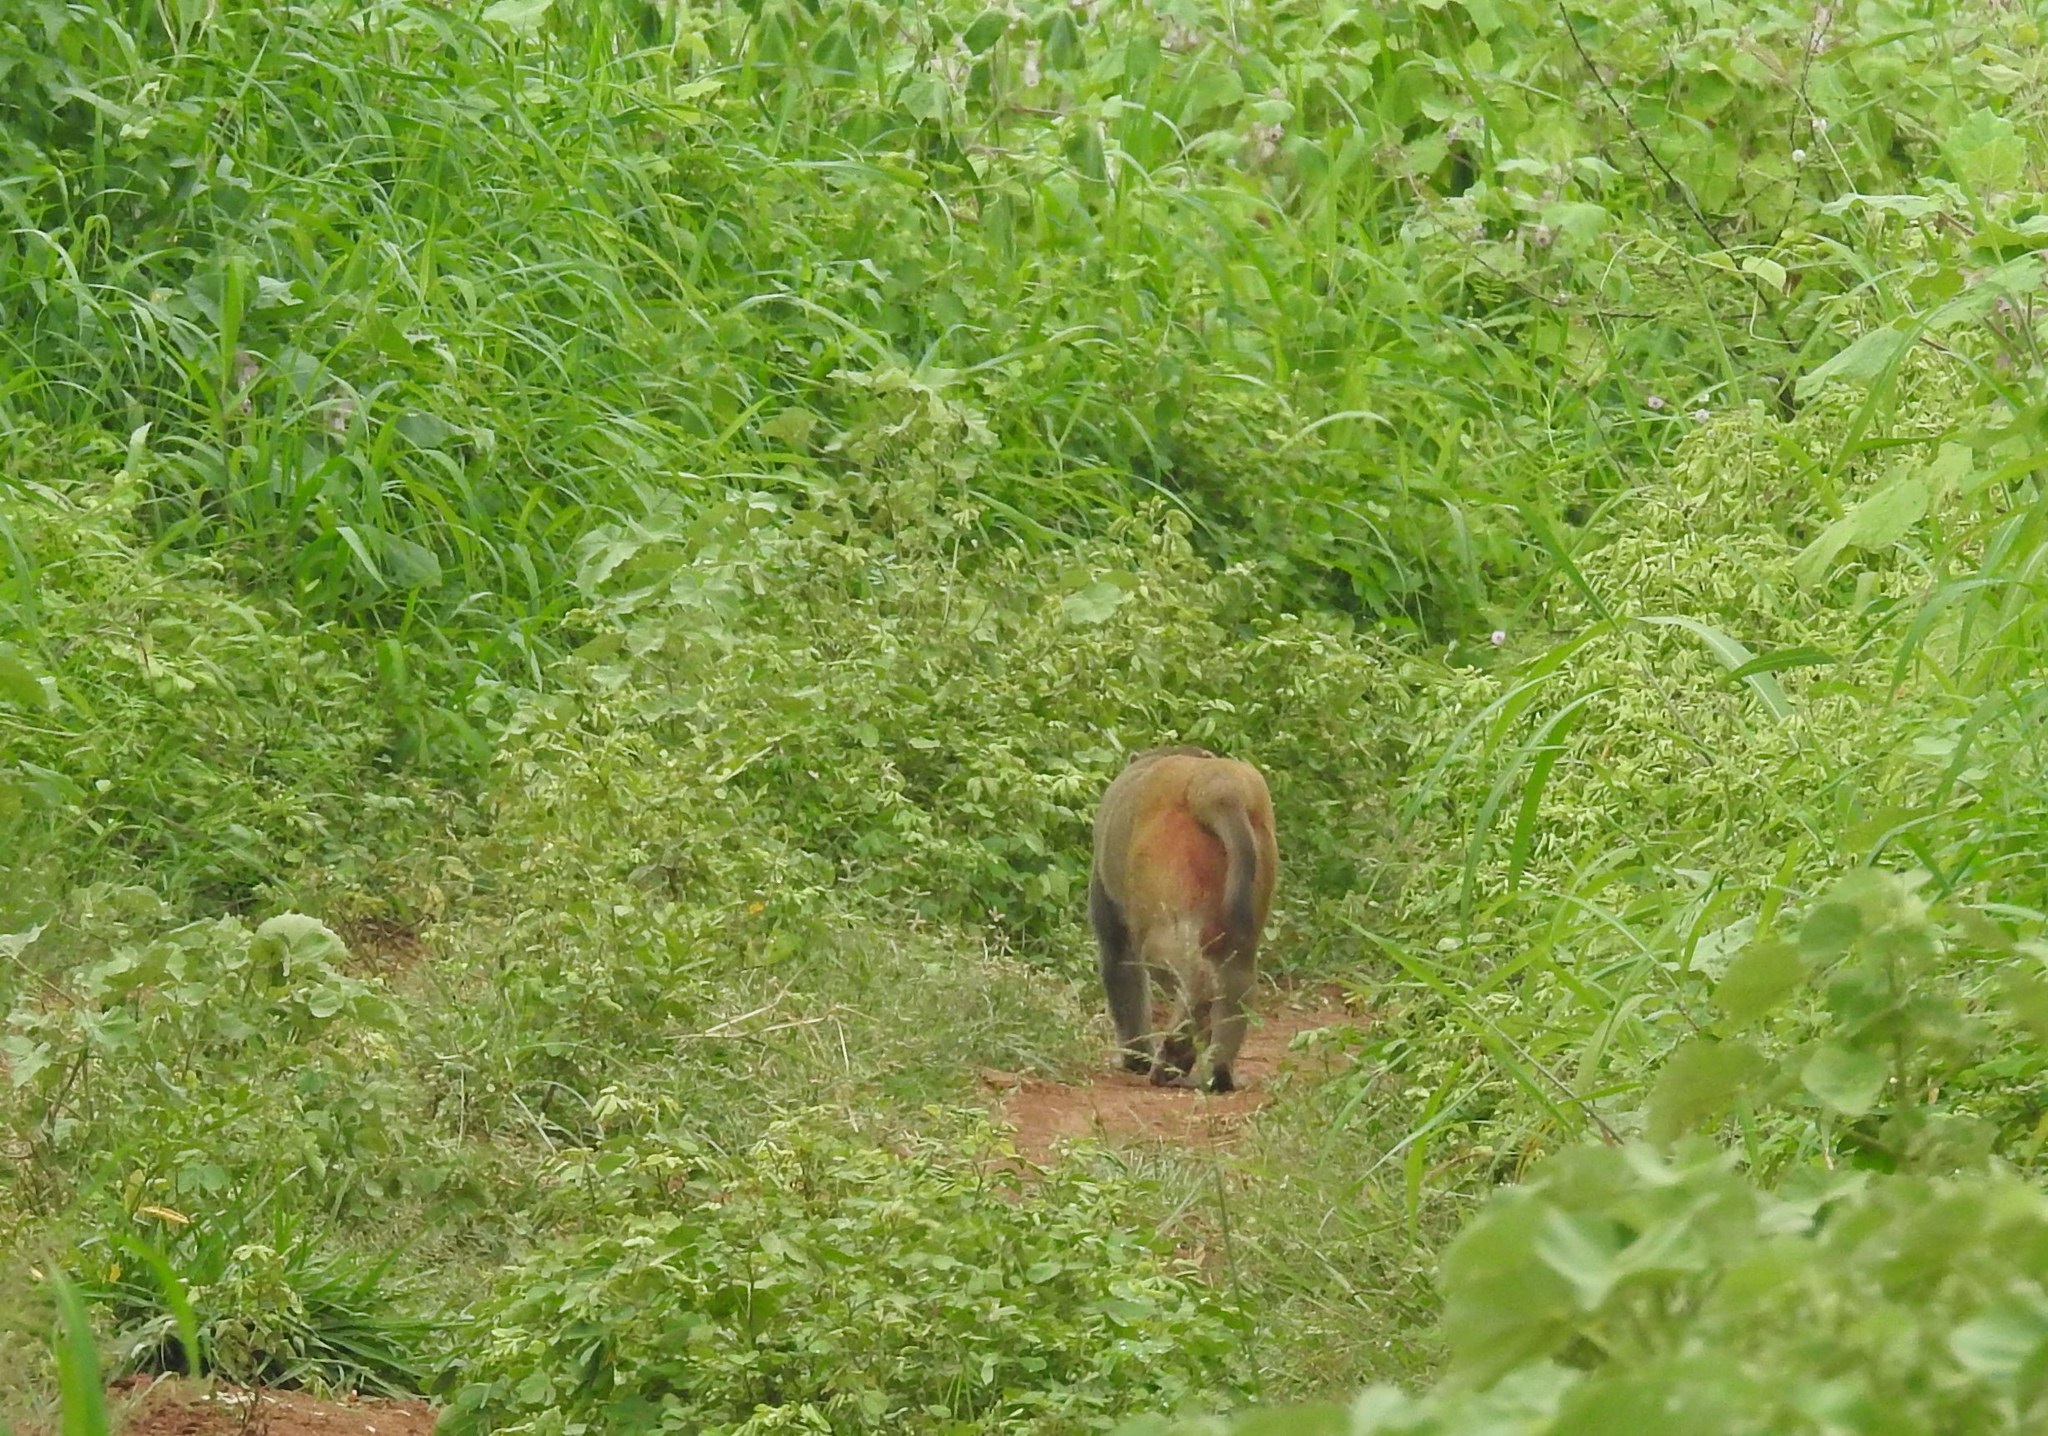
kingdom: Animalia
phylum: Chordata
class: Mammalia
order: Primates
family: Cercopithecidae
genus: Macaca
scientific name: Macaca mulatta
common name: Rhesus monkey
